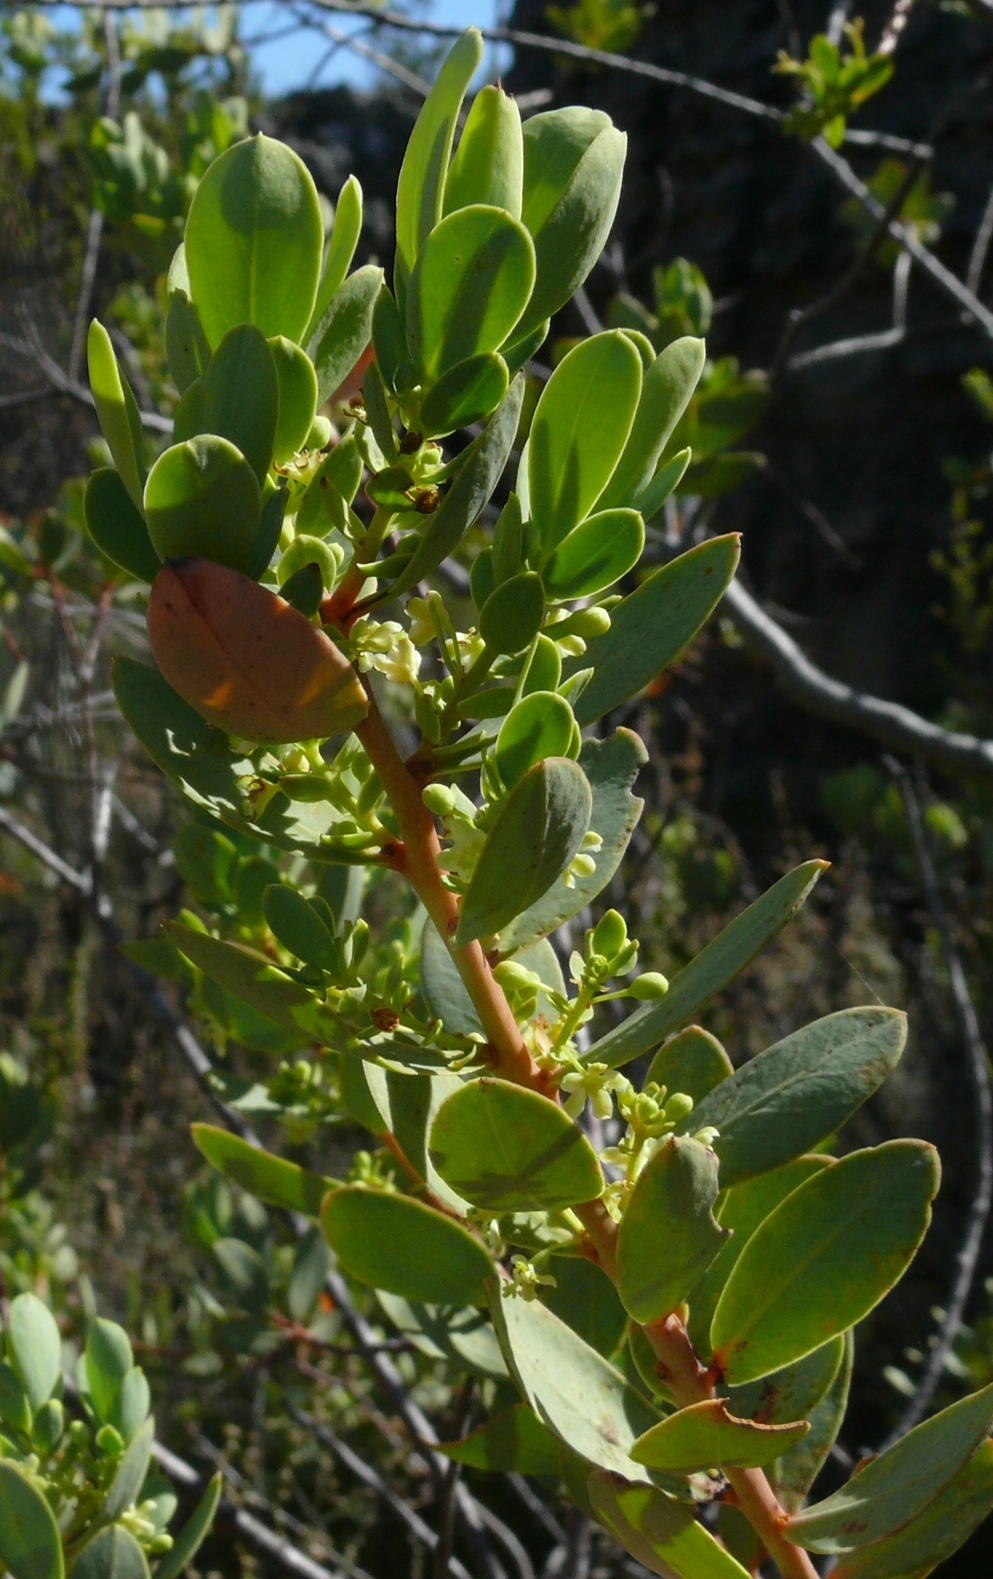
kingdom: Plantae
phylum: Tracheophyta
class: Magnoliopsida
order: Malpighiales
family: Peraceae
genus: Clutia
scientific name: Clutia alaternoides
